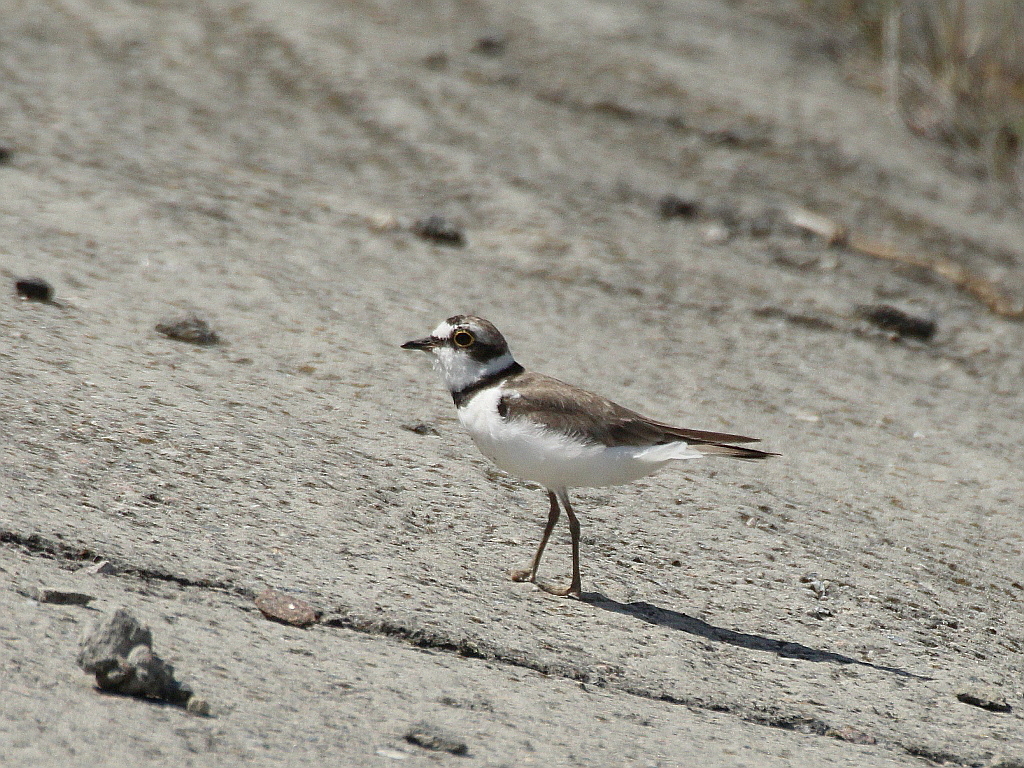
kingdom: Animalia
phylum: Chordata
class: Aves
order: Charadriiformes
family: Charadriidae
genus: Charadrius
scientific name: Charadrius dubius
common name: Little ringed plover
